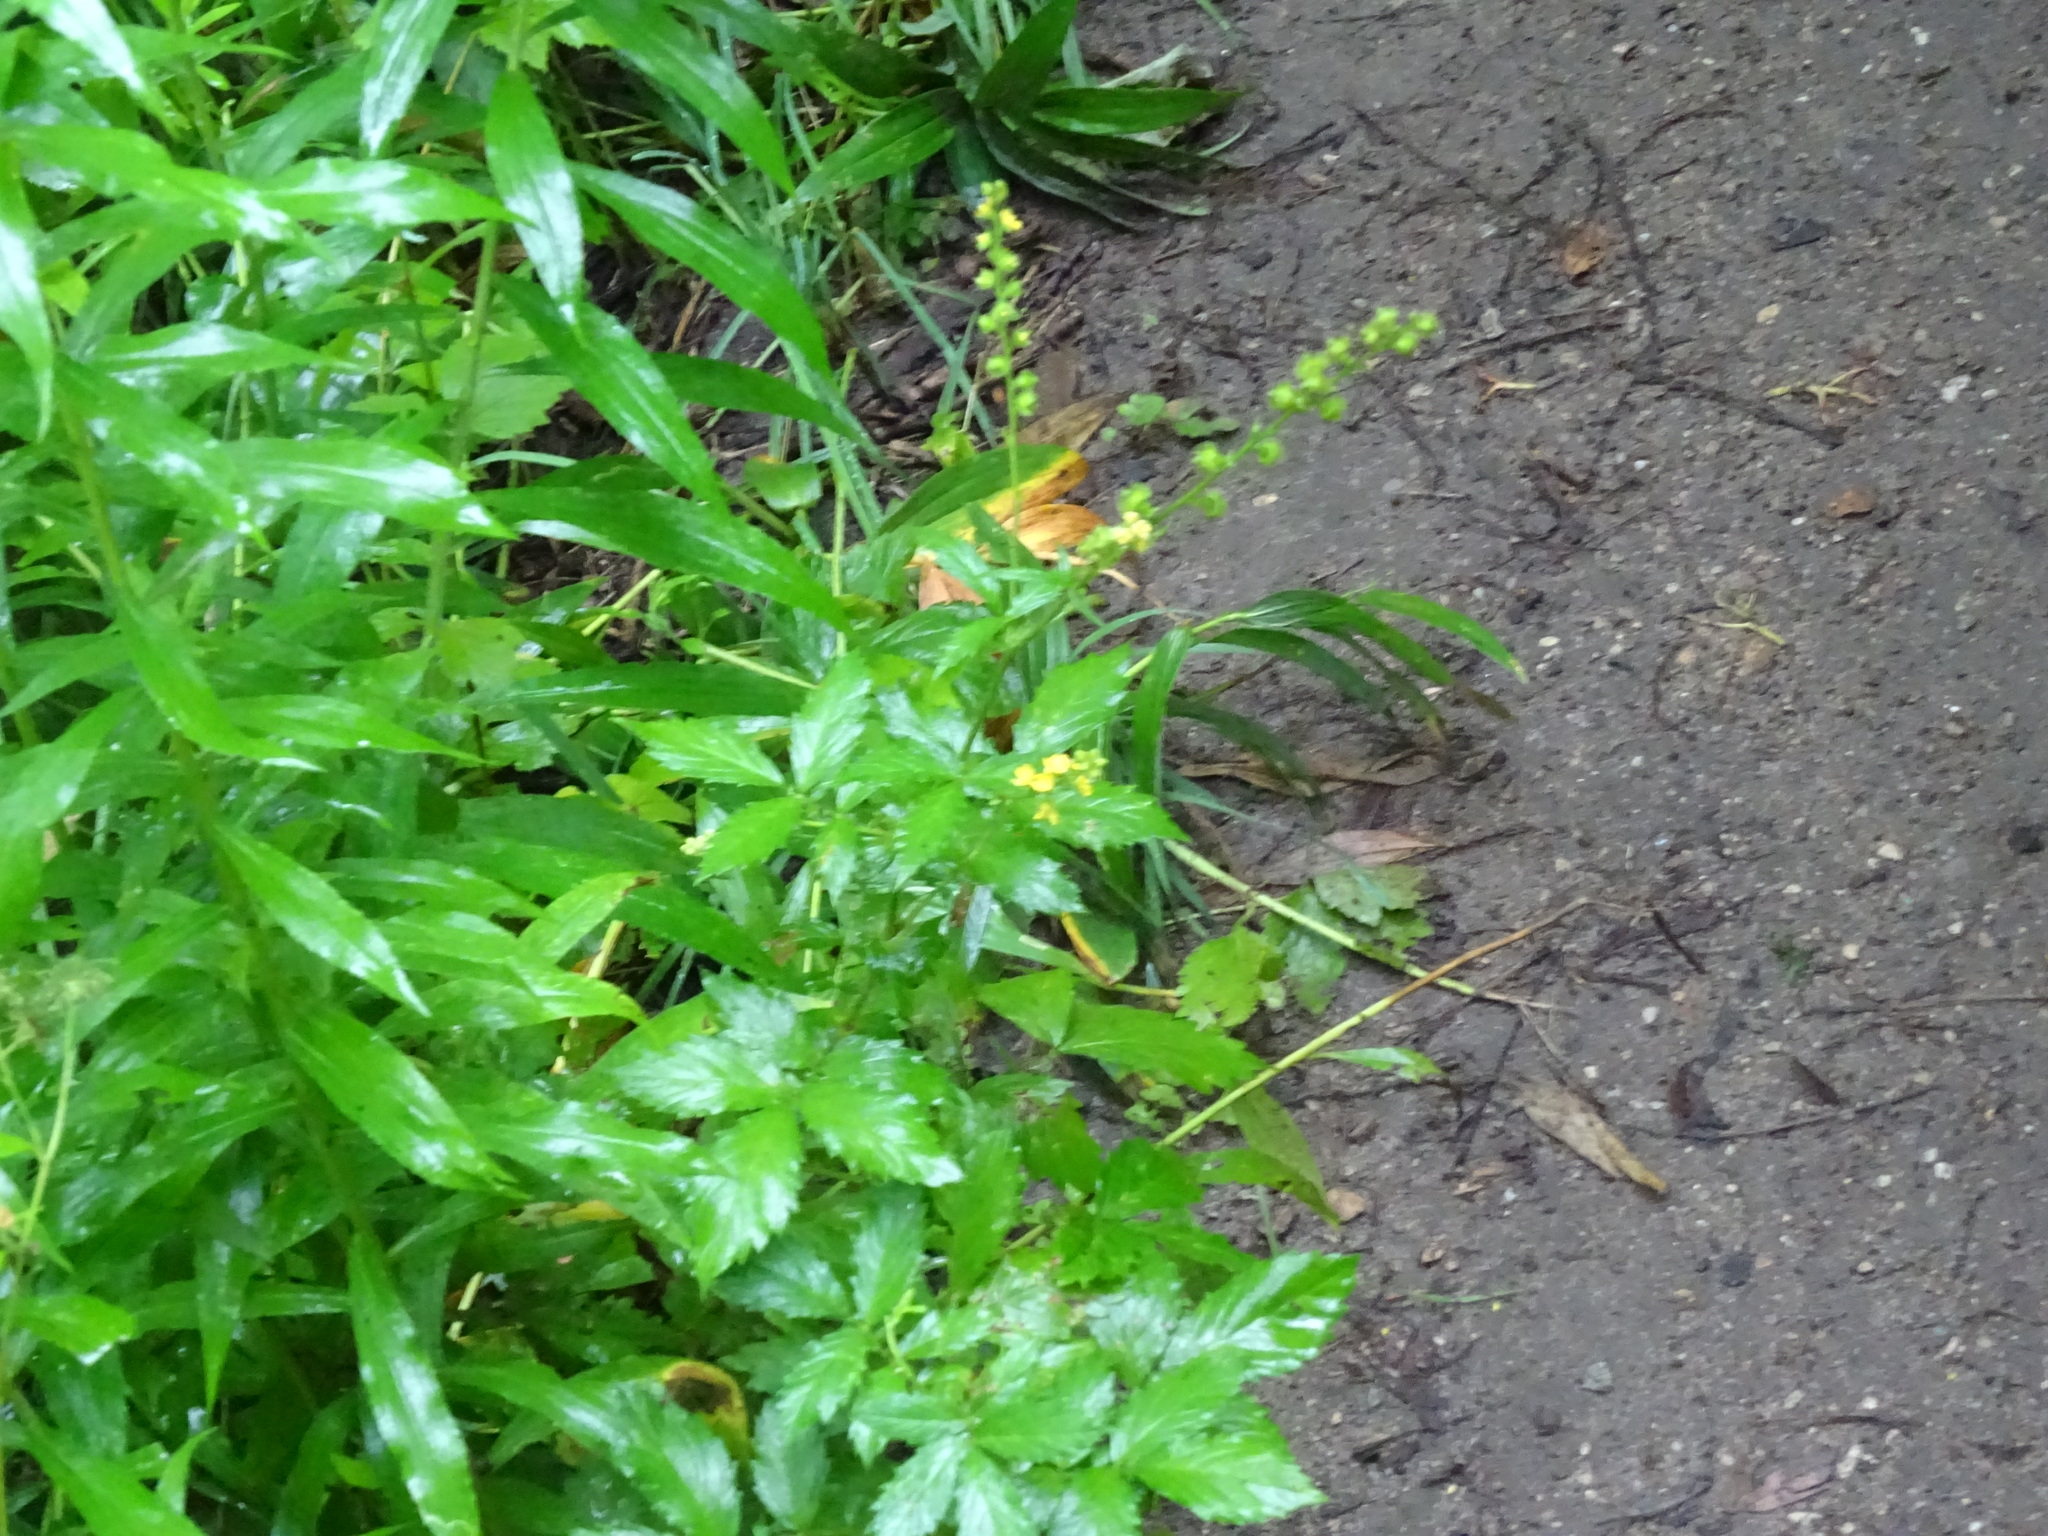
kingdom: Plantae
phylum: Tracheophyta
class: Magnoliopsida
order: Rosales
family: Rosaceae
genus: Agrimonia
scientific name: Agrimonia gryposepala
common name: Common agrimony
